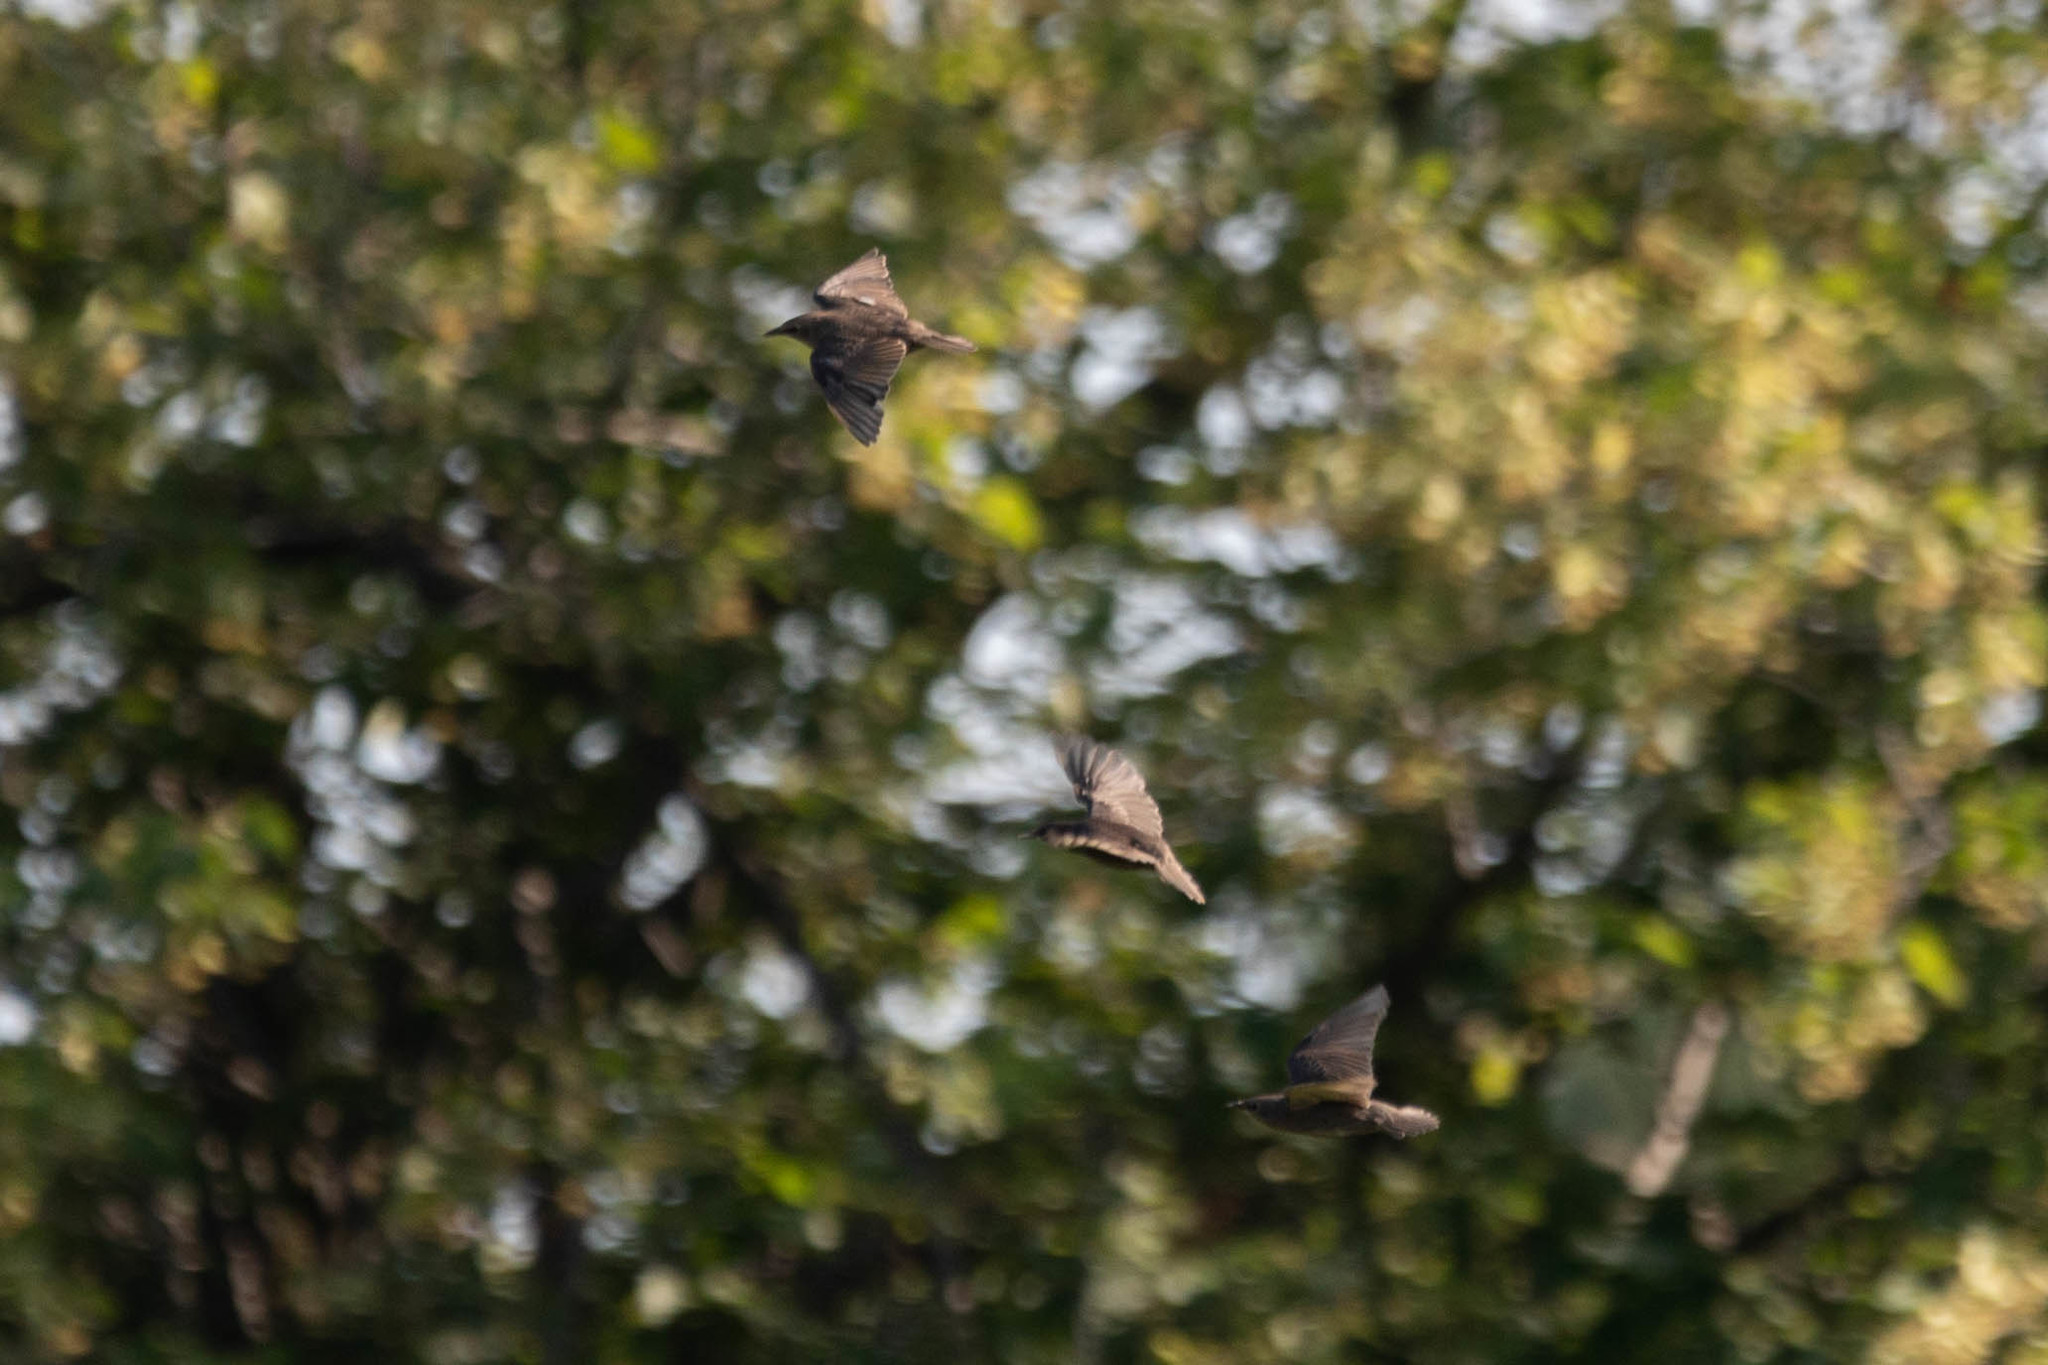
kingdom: Animalia
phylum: Chordata
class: Aves
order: Passeriformes
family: Sturnidae
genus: Sturnus
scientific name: Sturnus vulgaris
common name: Common starling
